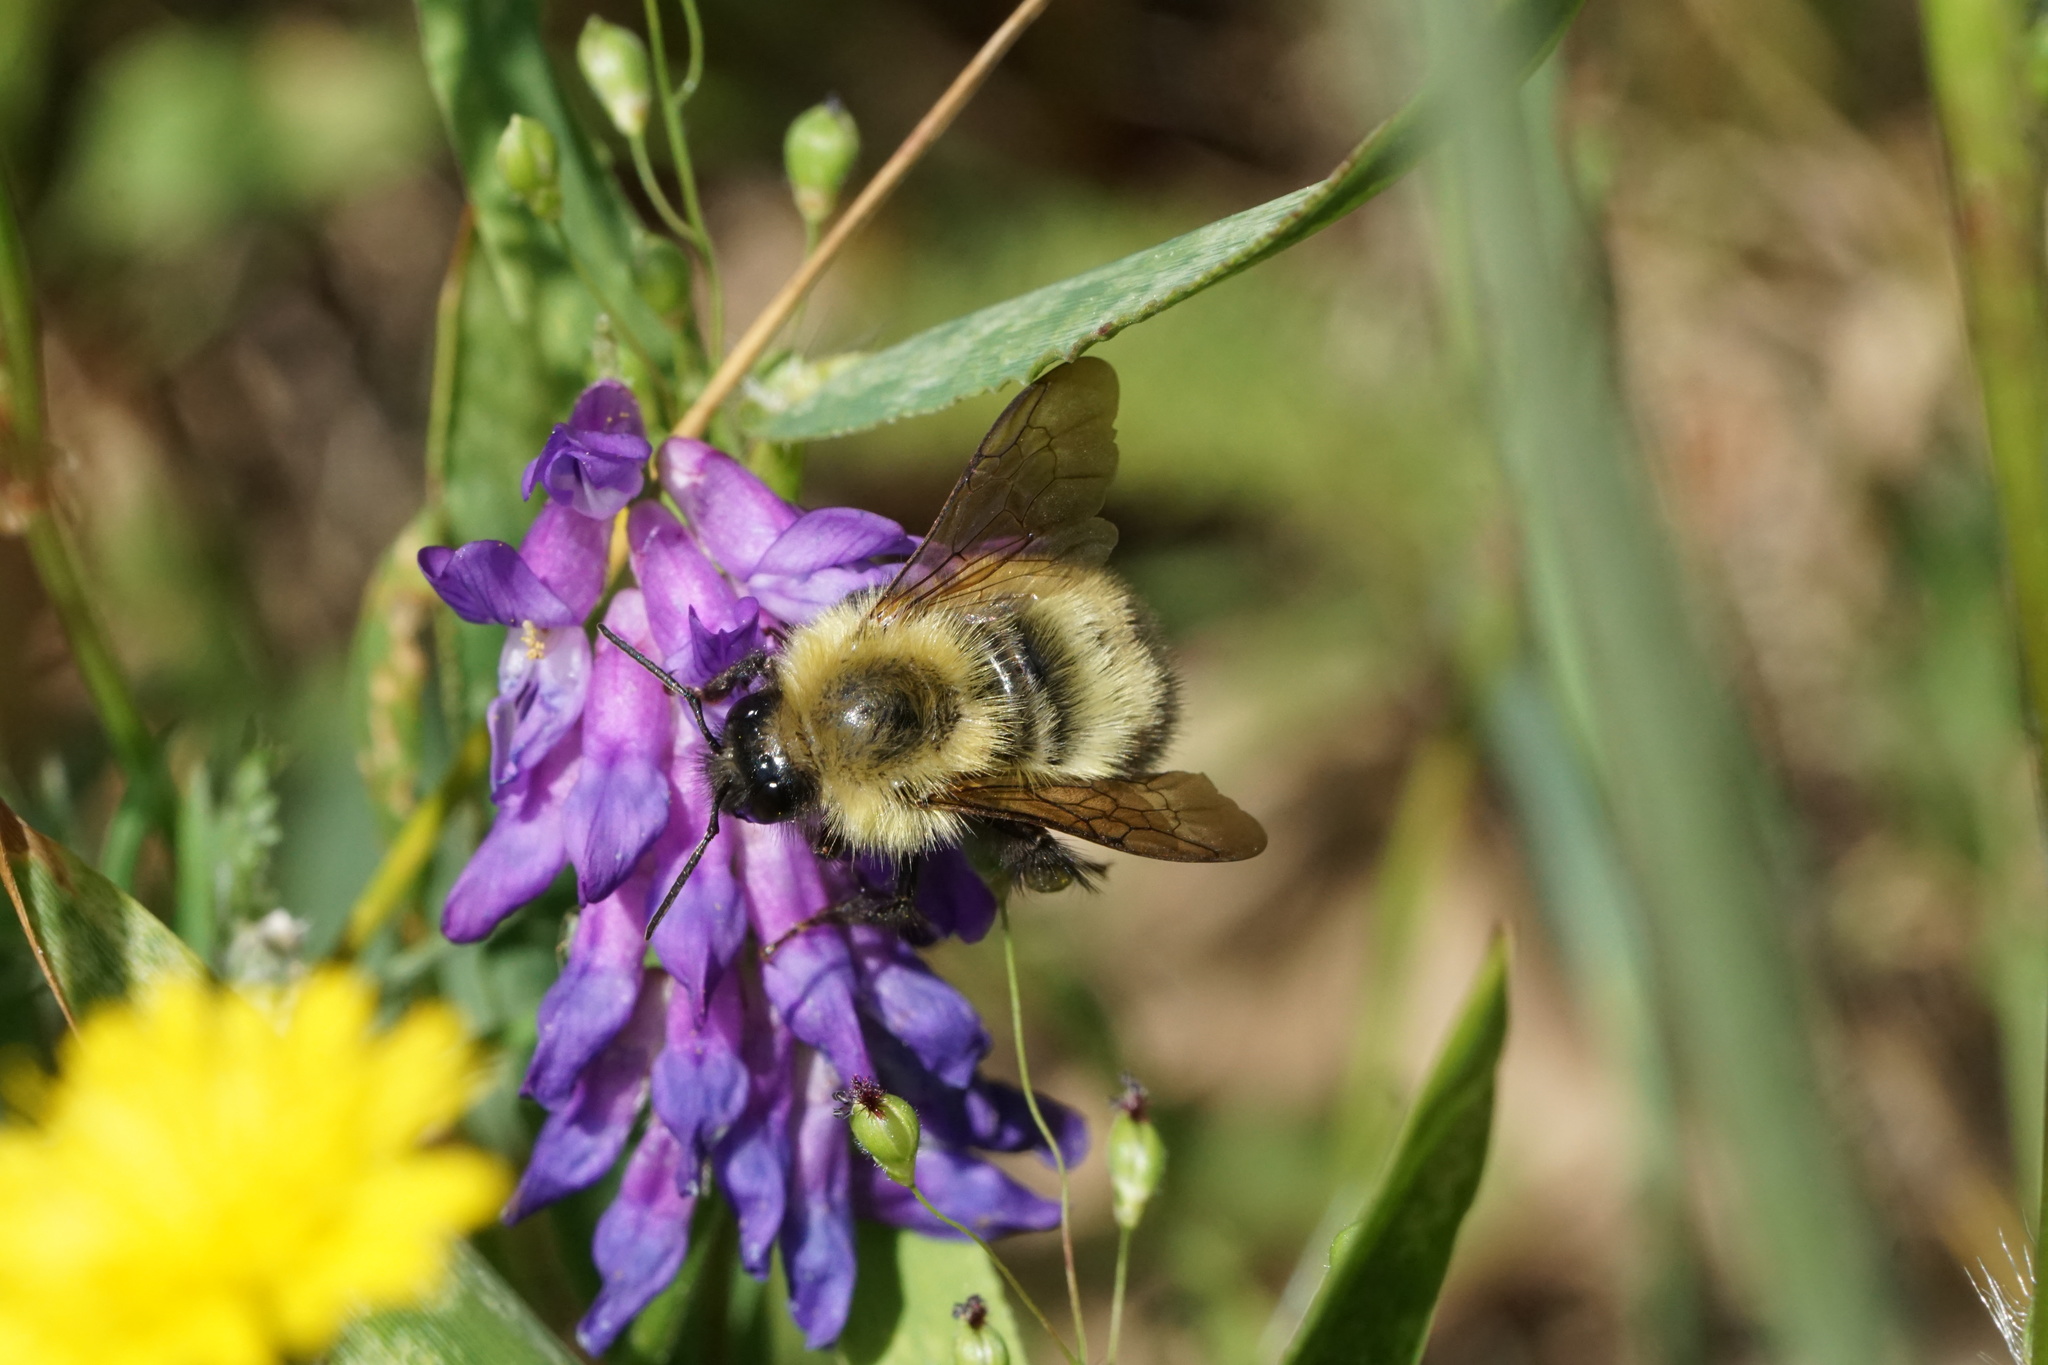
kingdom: Animalia
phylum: Arthropoda
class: Insecta
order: Hymenoptera
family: Apidae
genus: Bombus
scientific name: Bombus perplexus
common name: Confusing bumble bee
